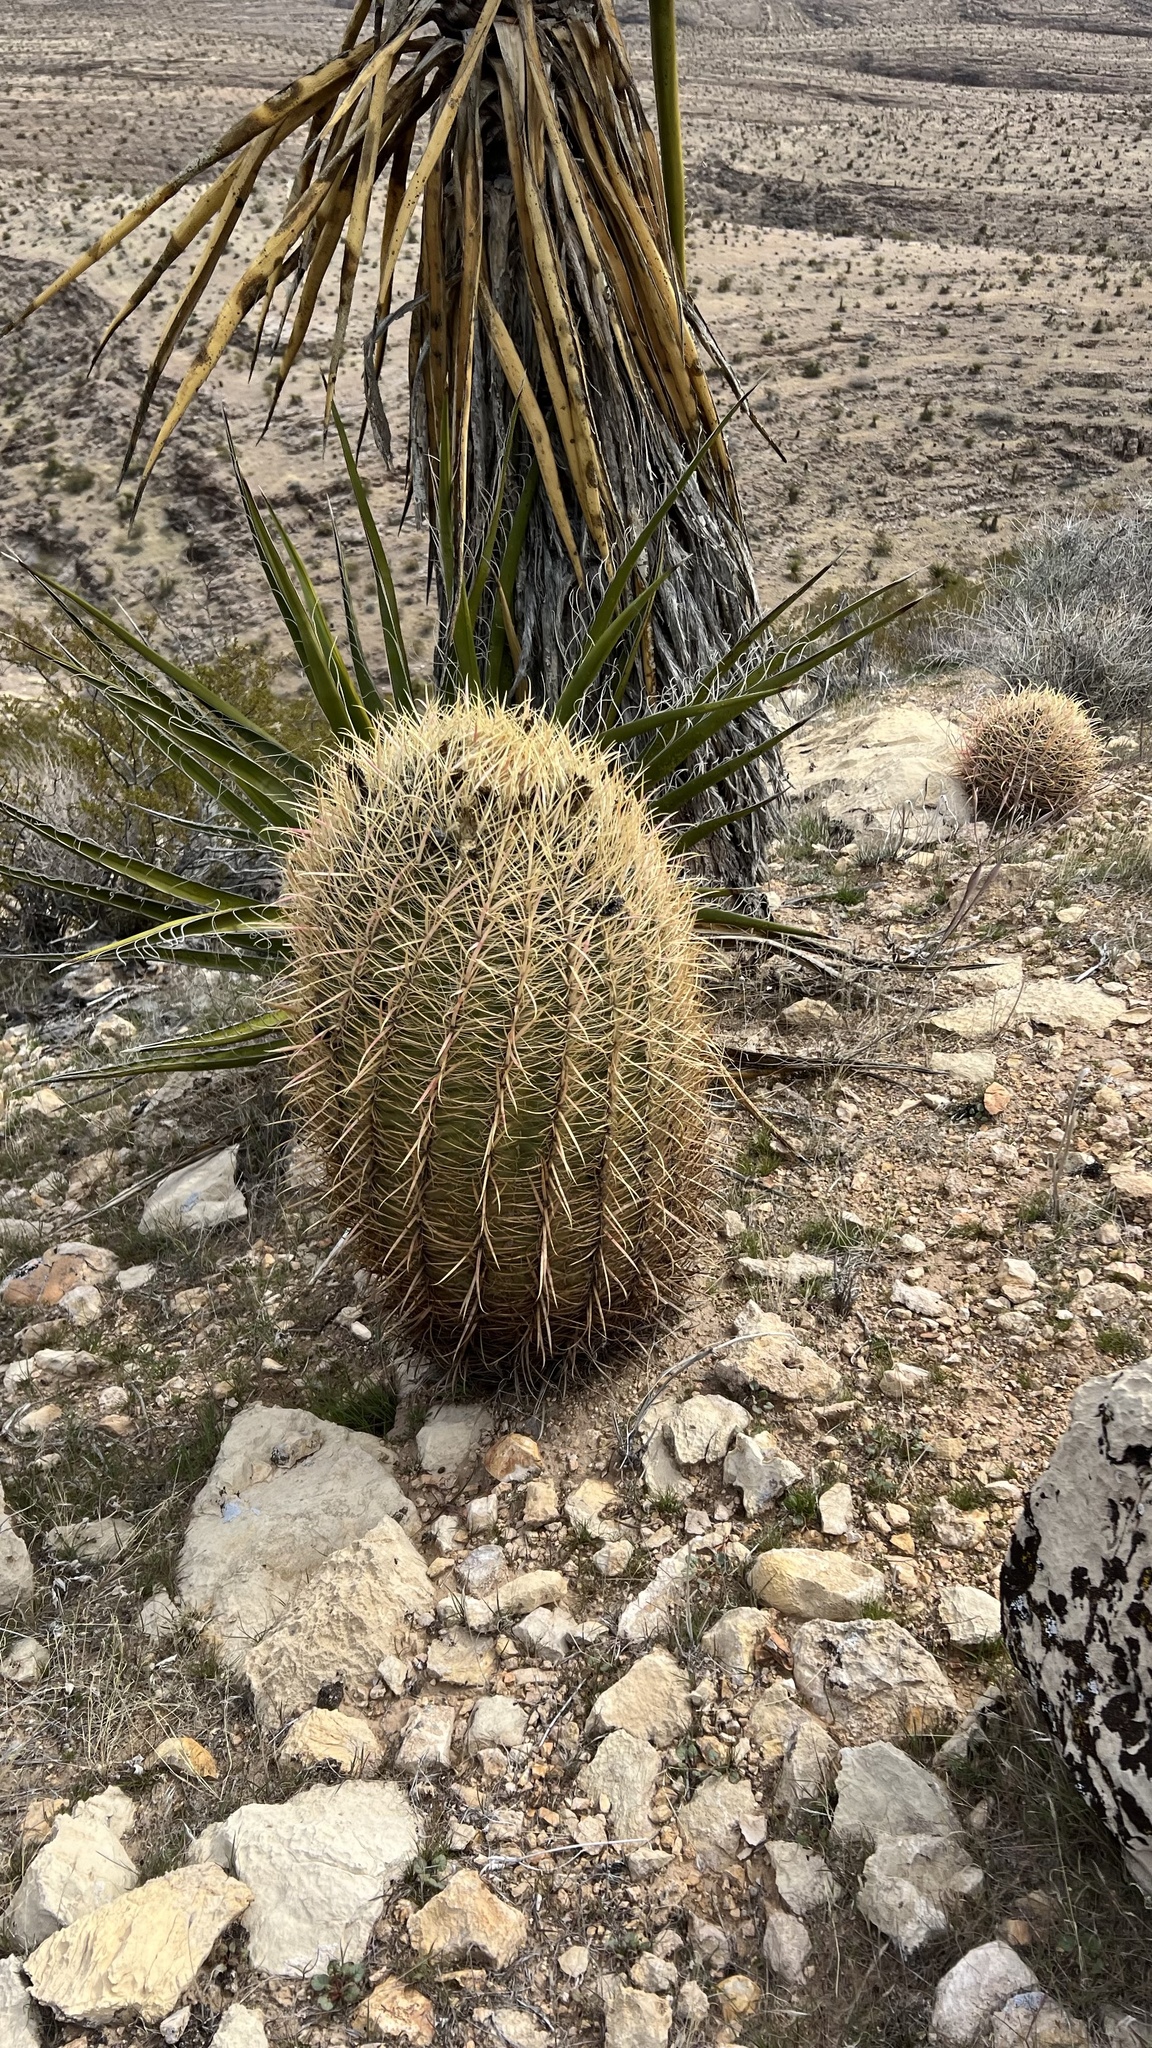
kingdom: Plantae
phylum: Tracheophyta
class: Magnoliopsida
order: Caryophyllales
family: Cactaceae
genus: Ferocactus
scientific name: Ferocactus cylindraceus
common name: California barrel cactus
